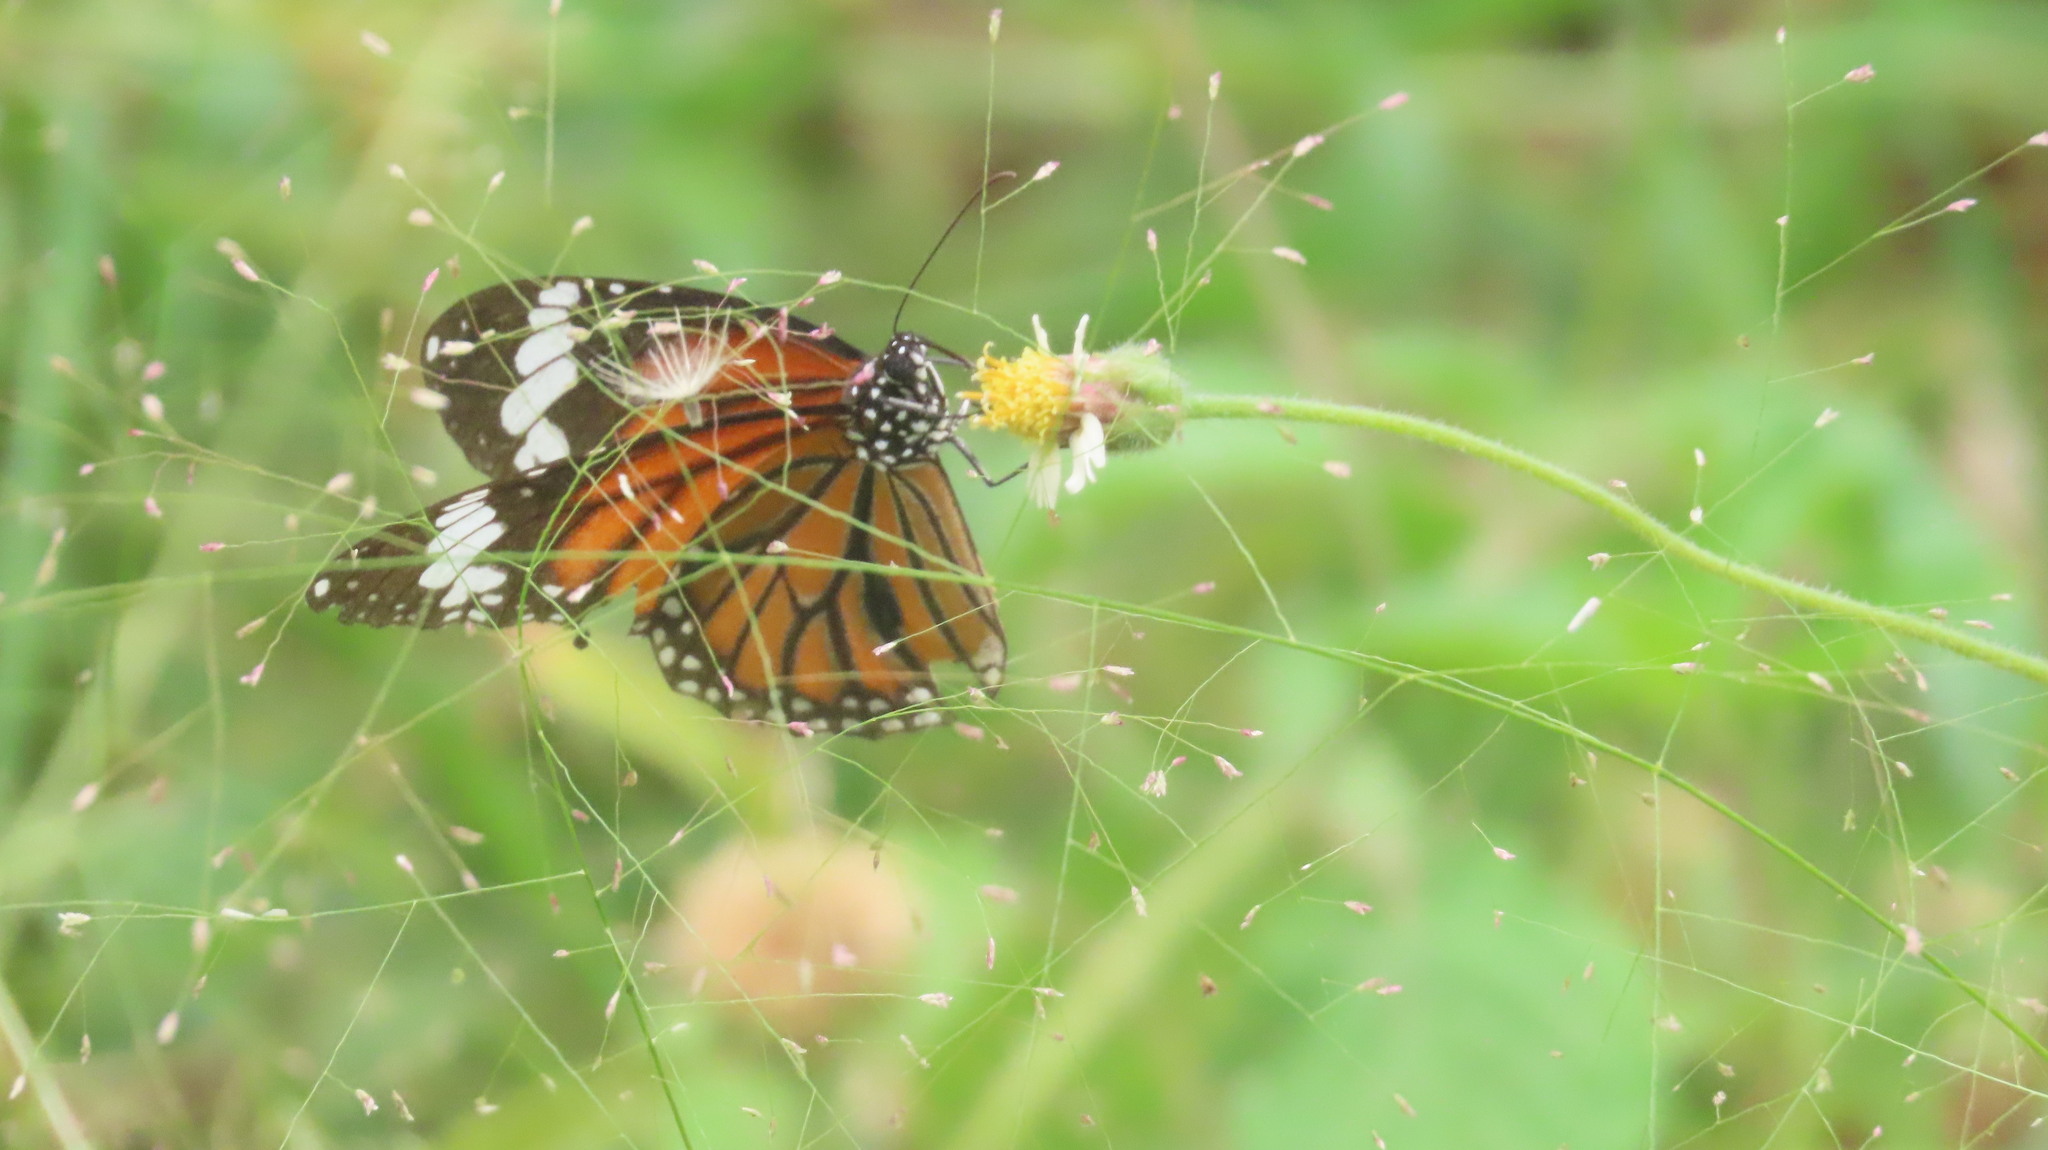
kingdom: Animalia
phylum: Arthropoda
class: Insecta
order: Lepidoptera
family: Nymphalidae
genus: Danaus
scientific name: Danaus genutia
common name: Common tiger butterfly
